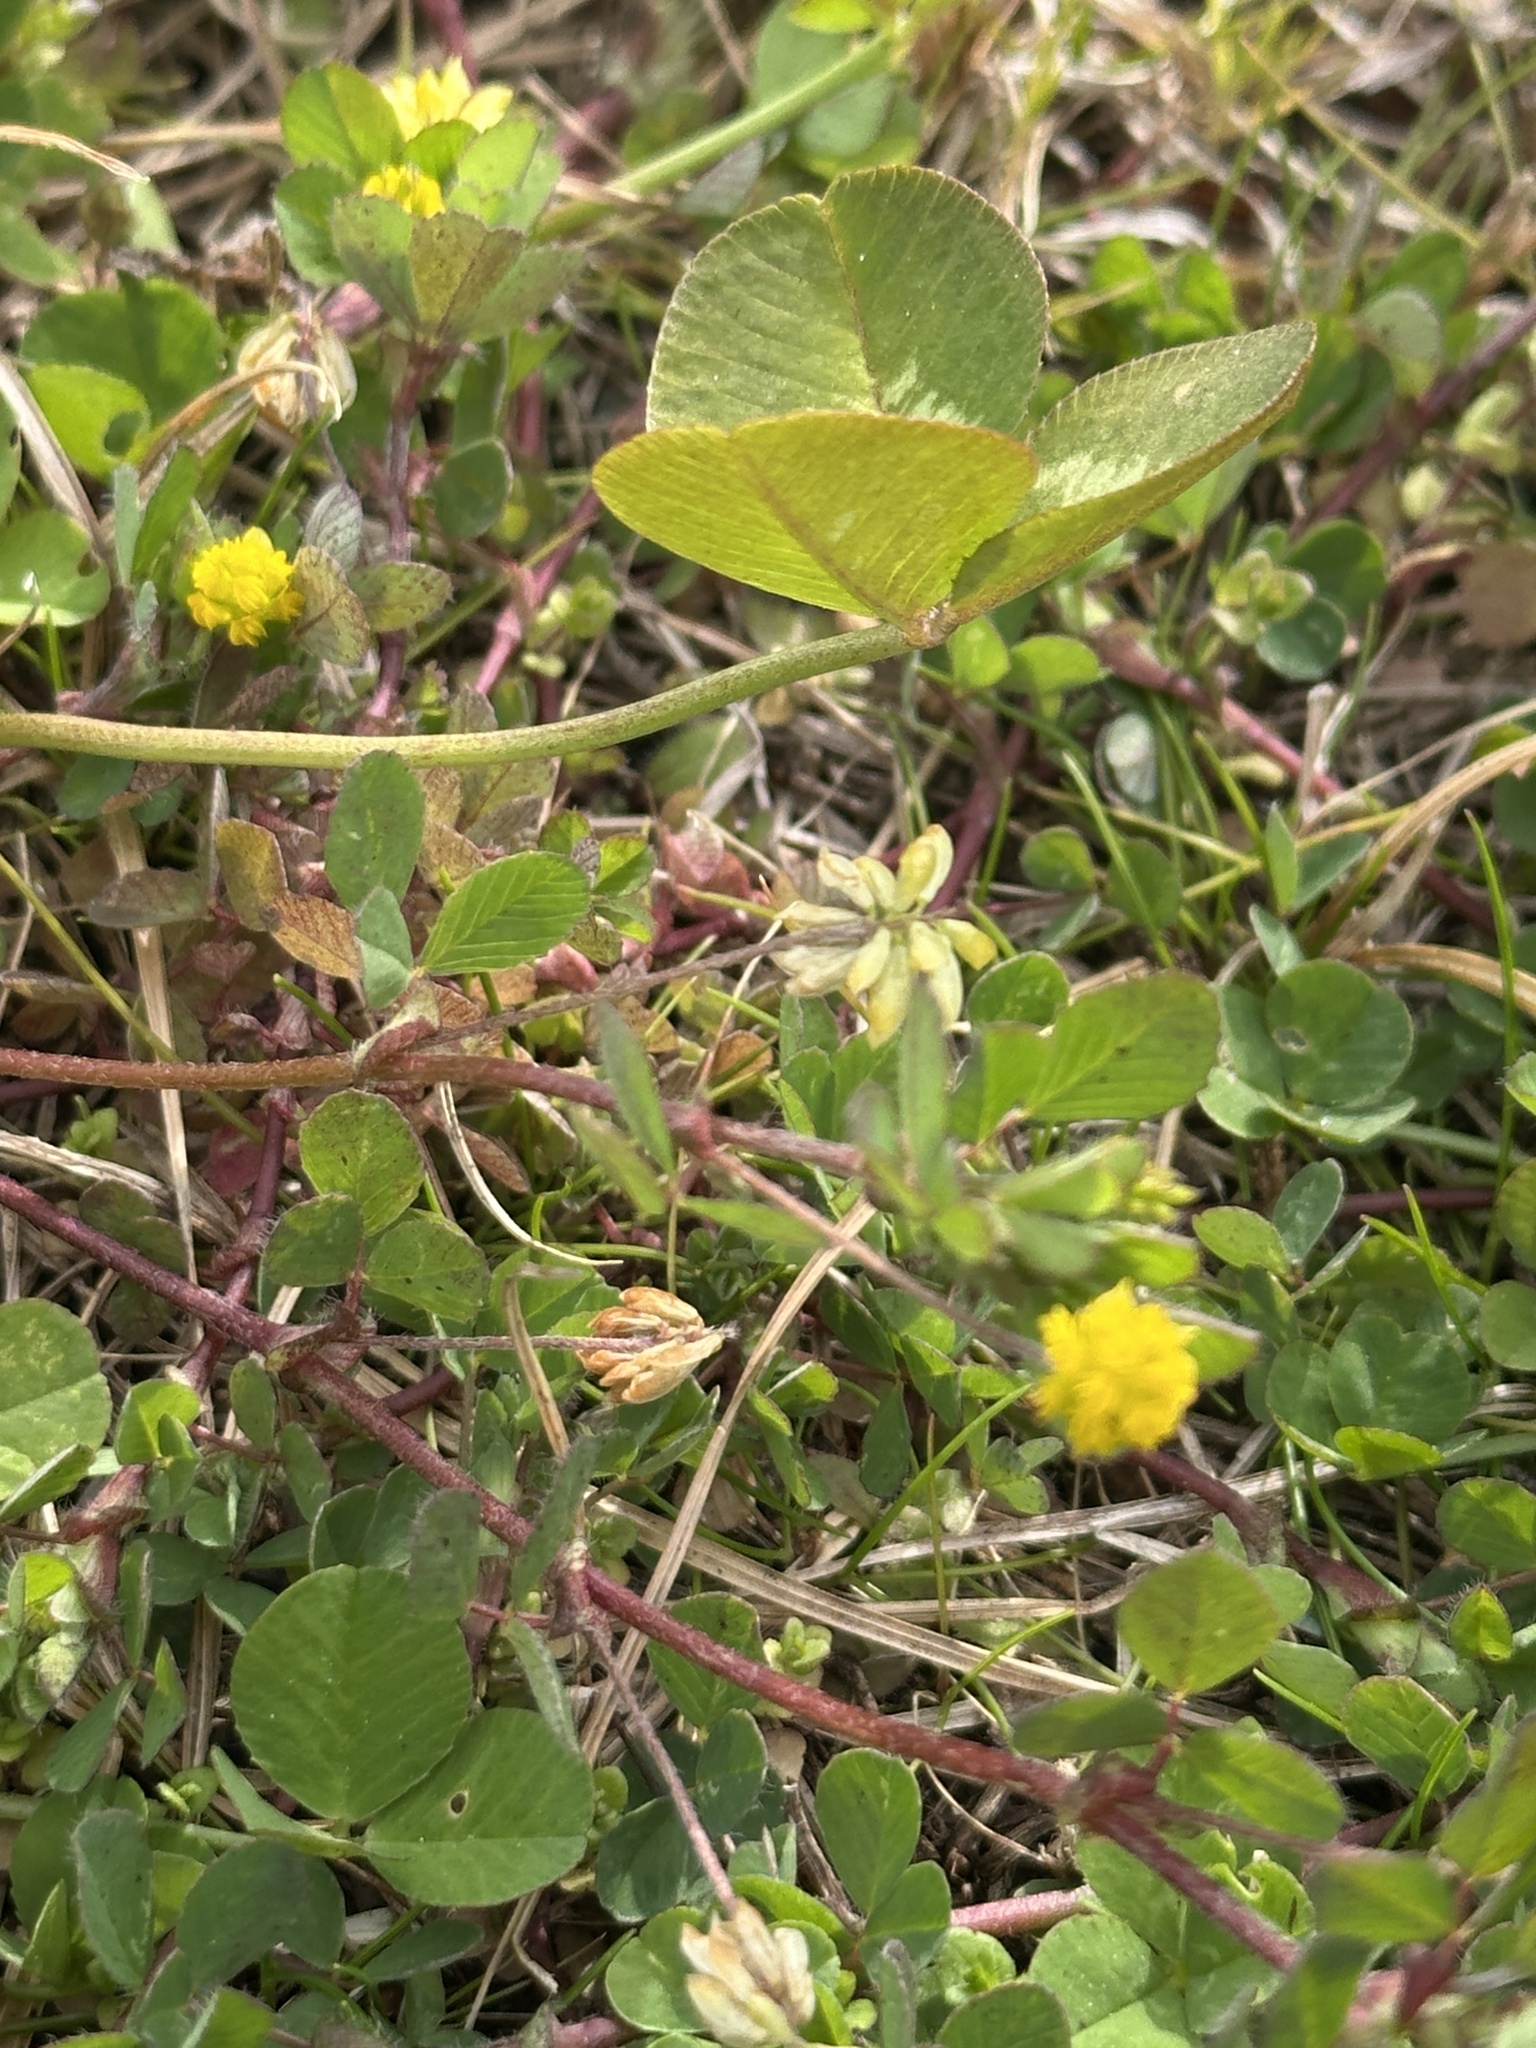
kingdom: Plantae
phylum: Tracheophyta
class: Magnoliopsida
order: Fabales
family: Fabaceae
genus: Trifolium
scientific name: Trifolium dubium
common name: Suckling clover
